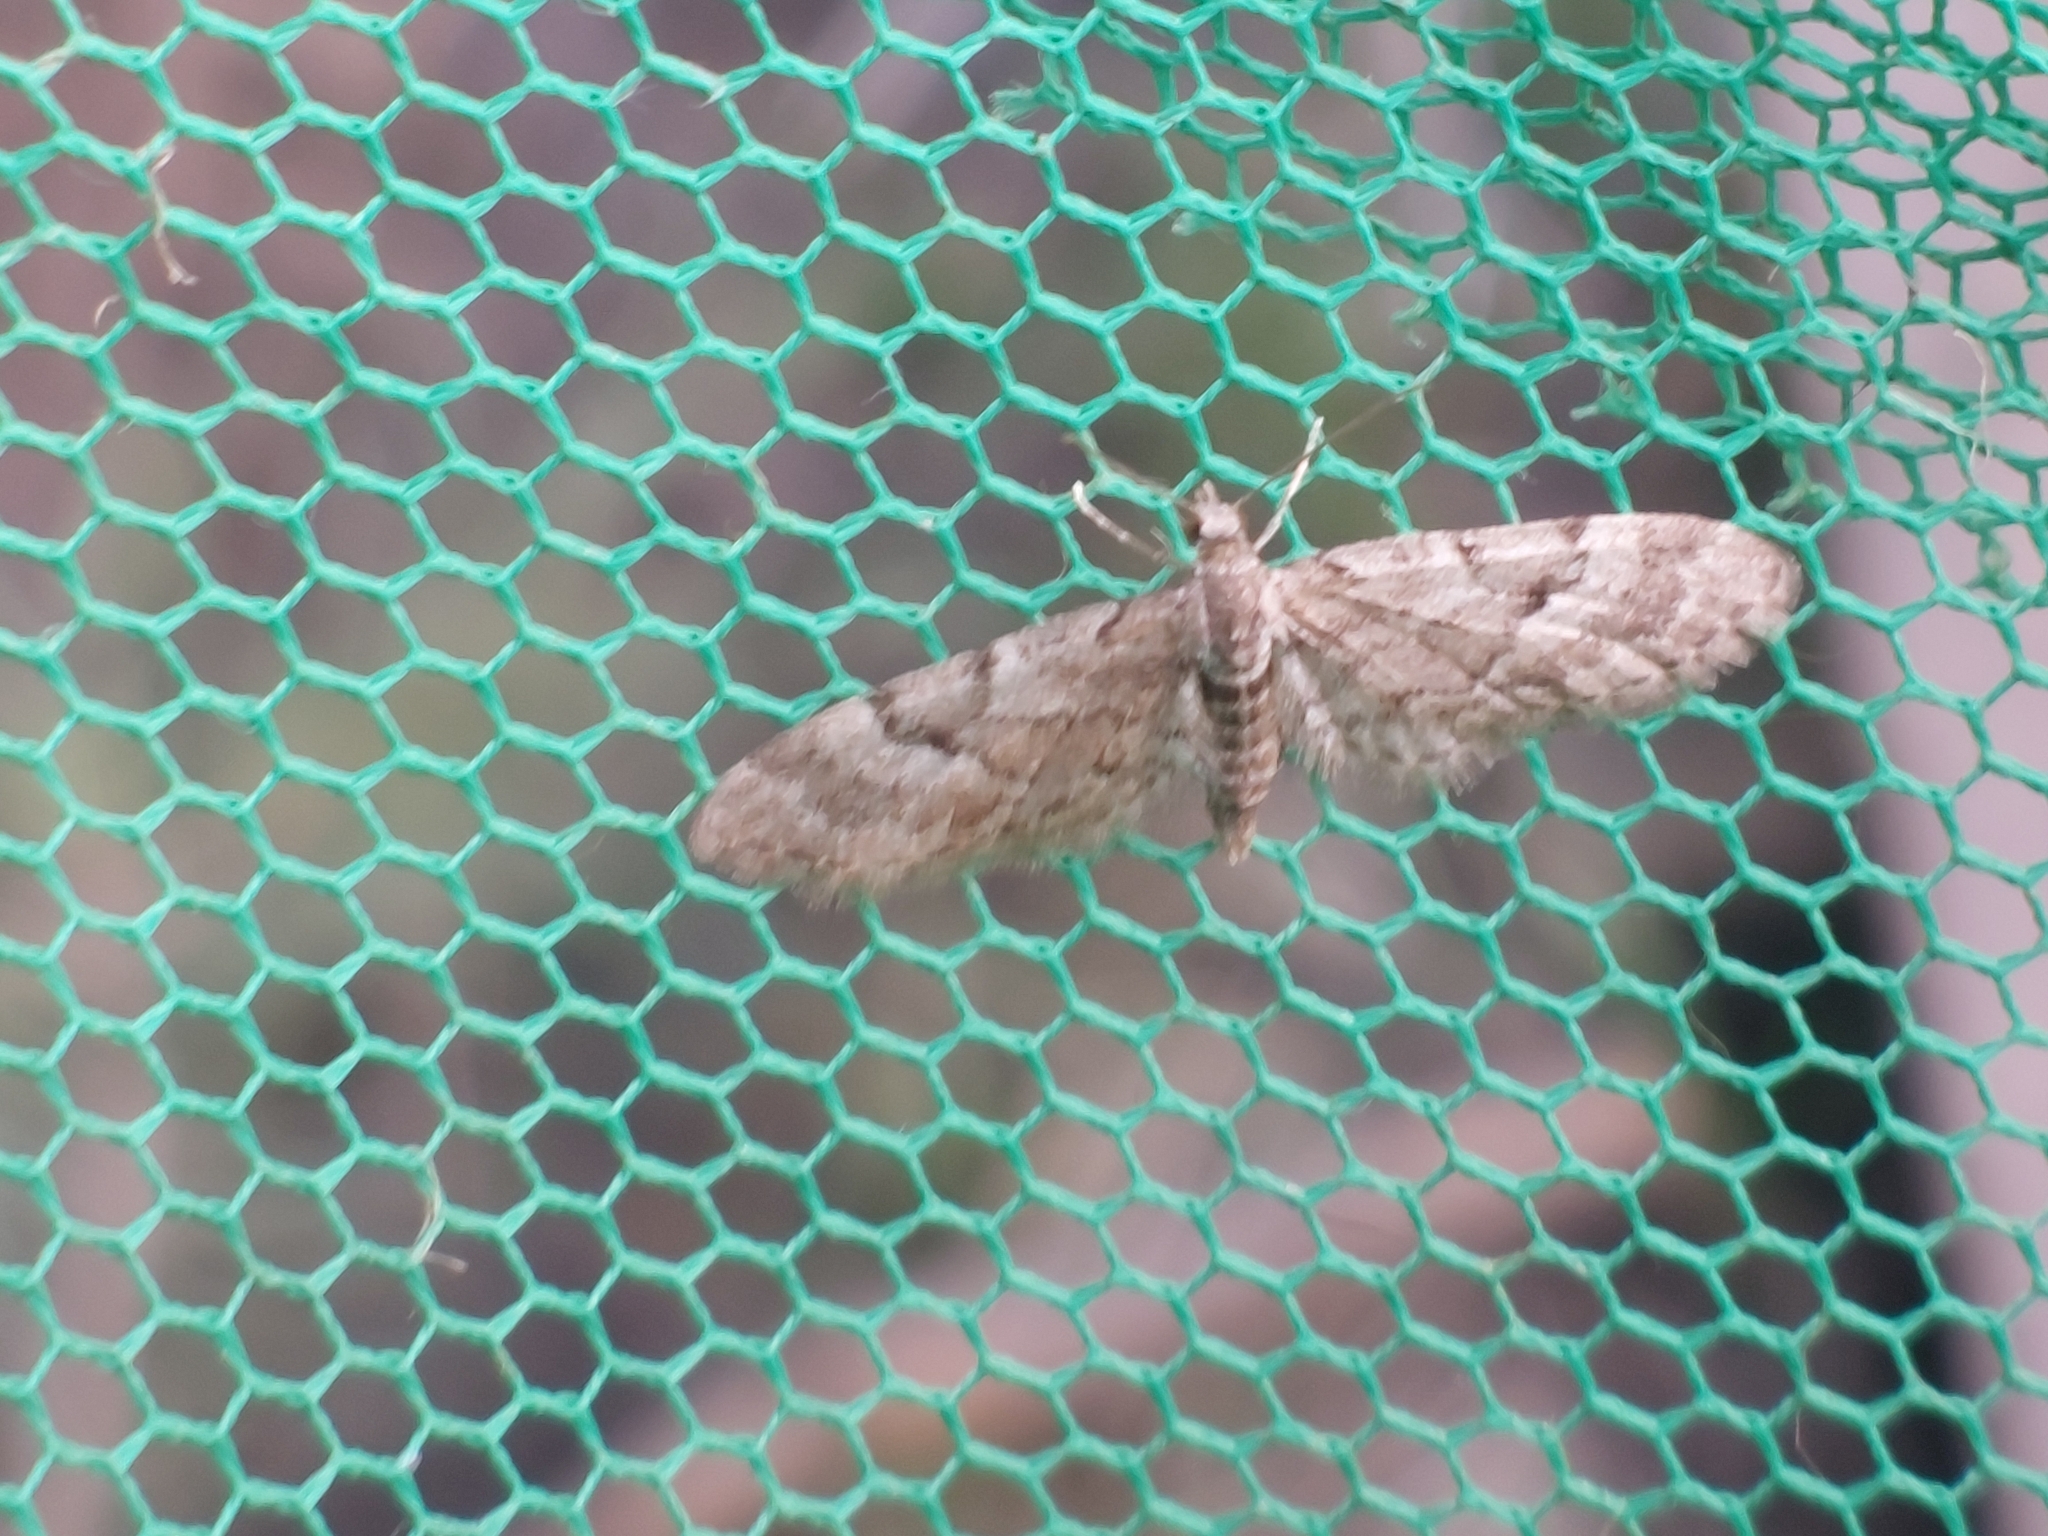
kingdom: Animalia
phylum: Arthropoda
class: Insecta
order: Lepidoptera
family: Geometridae
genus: Eupithecia
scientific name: Eupithecia lanceata
